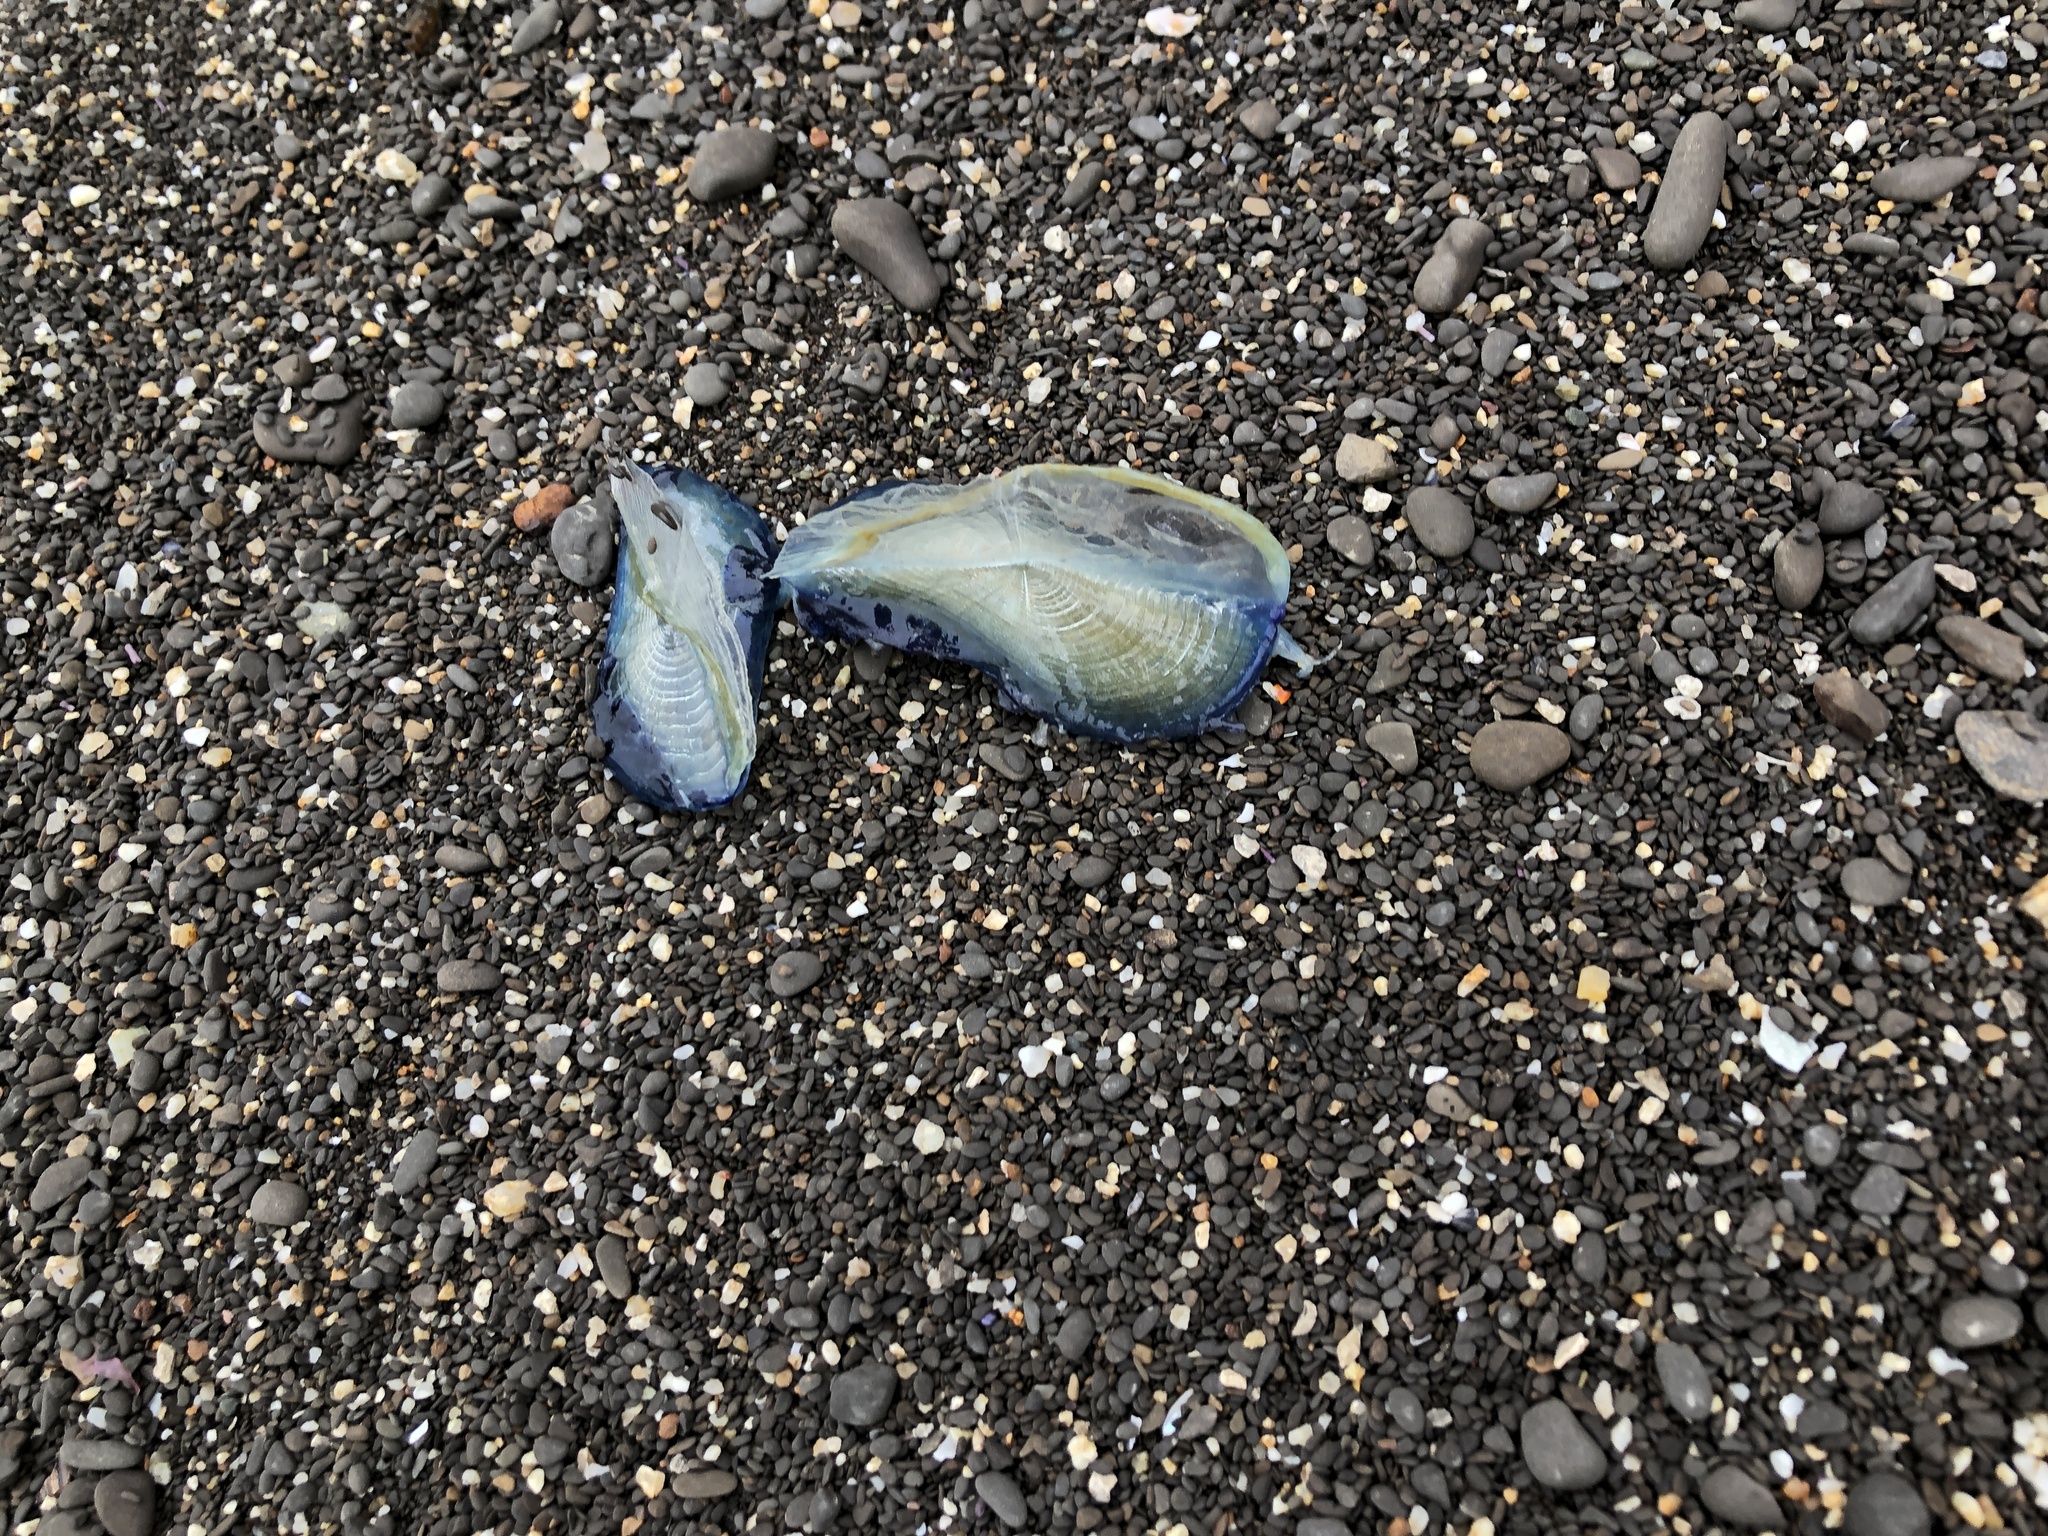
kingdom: Animalia
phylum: Cnidaria
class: Hydrozoa
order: Anthoathecata
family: Porpitidae
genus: Velella
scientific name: Velella velella
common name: By-the-wind-sailor
